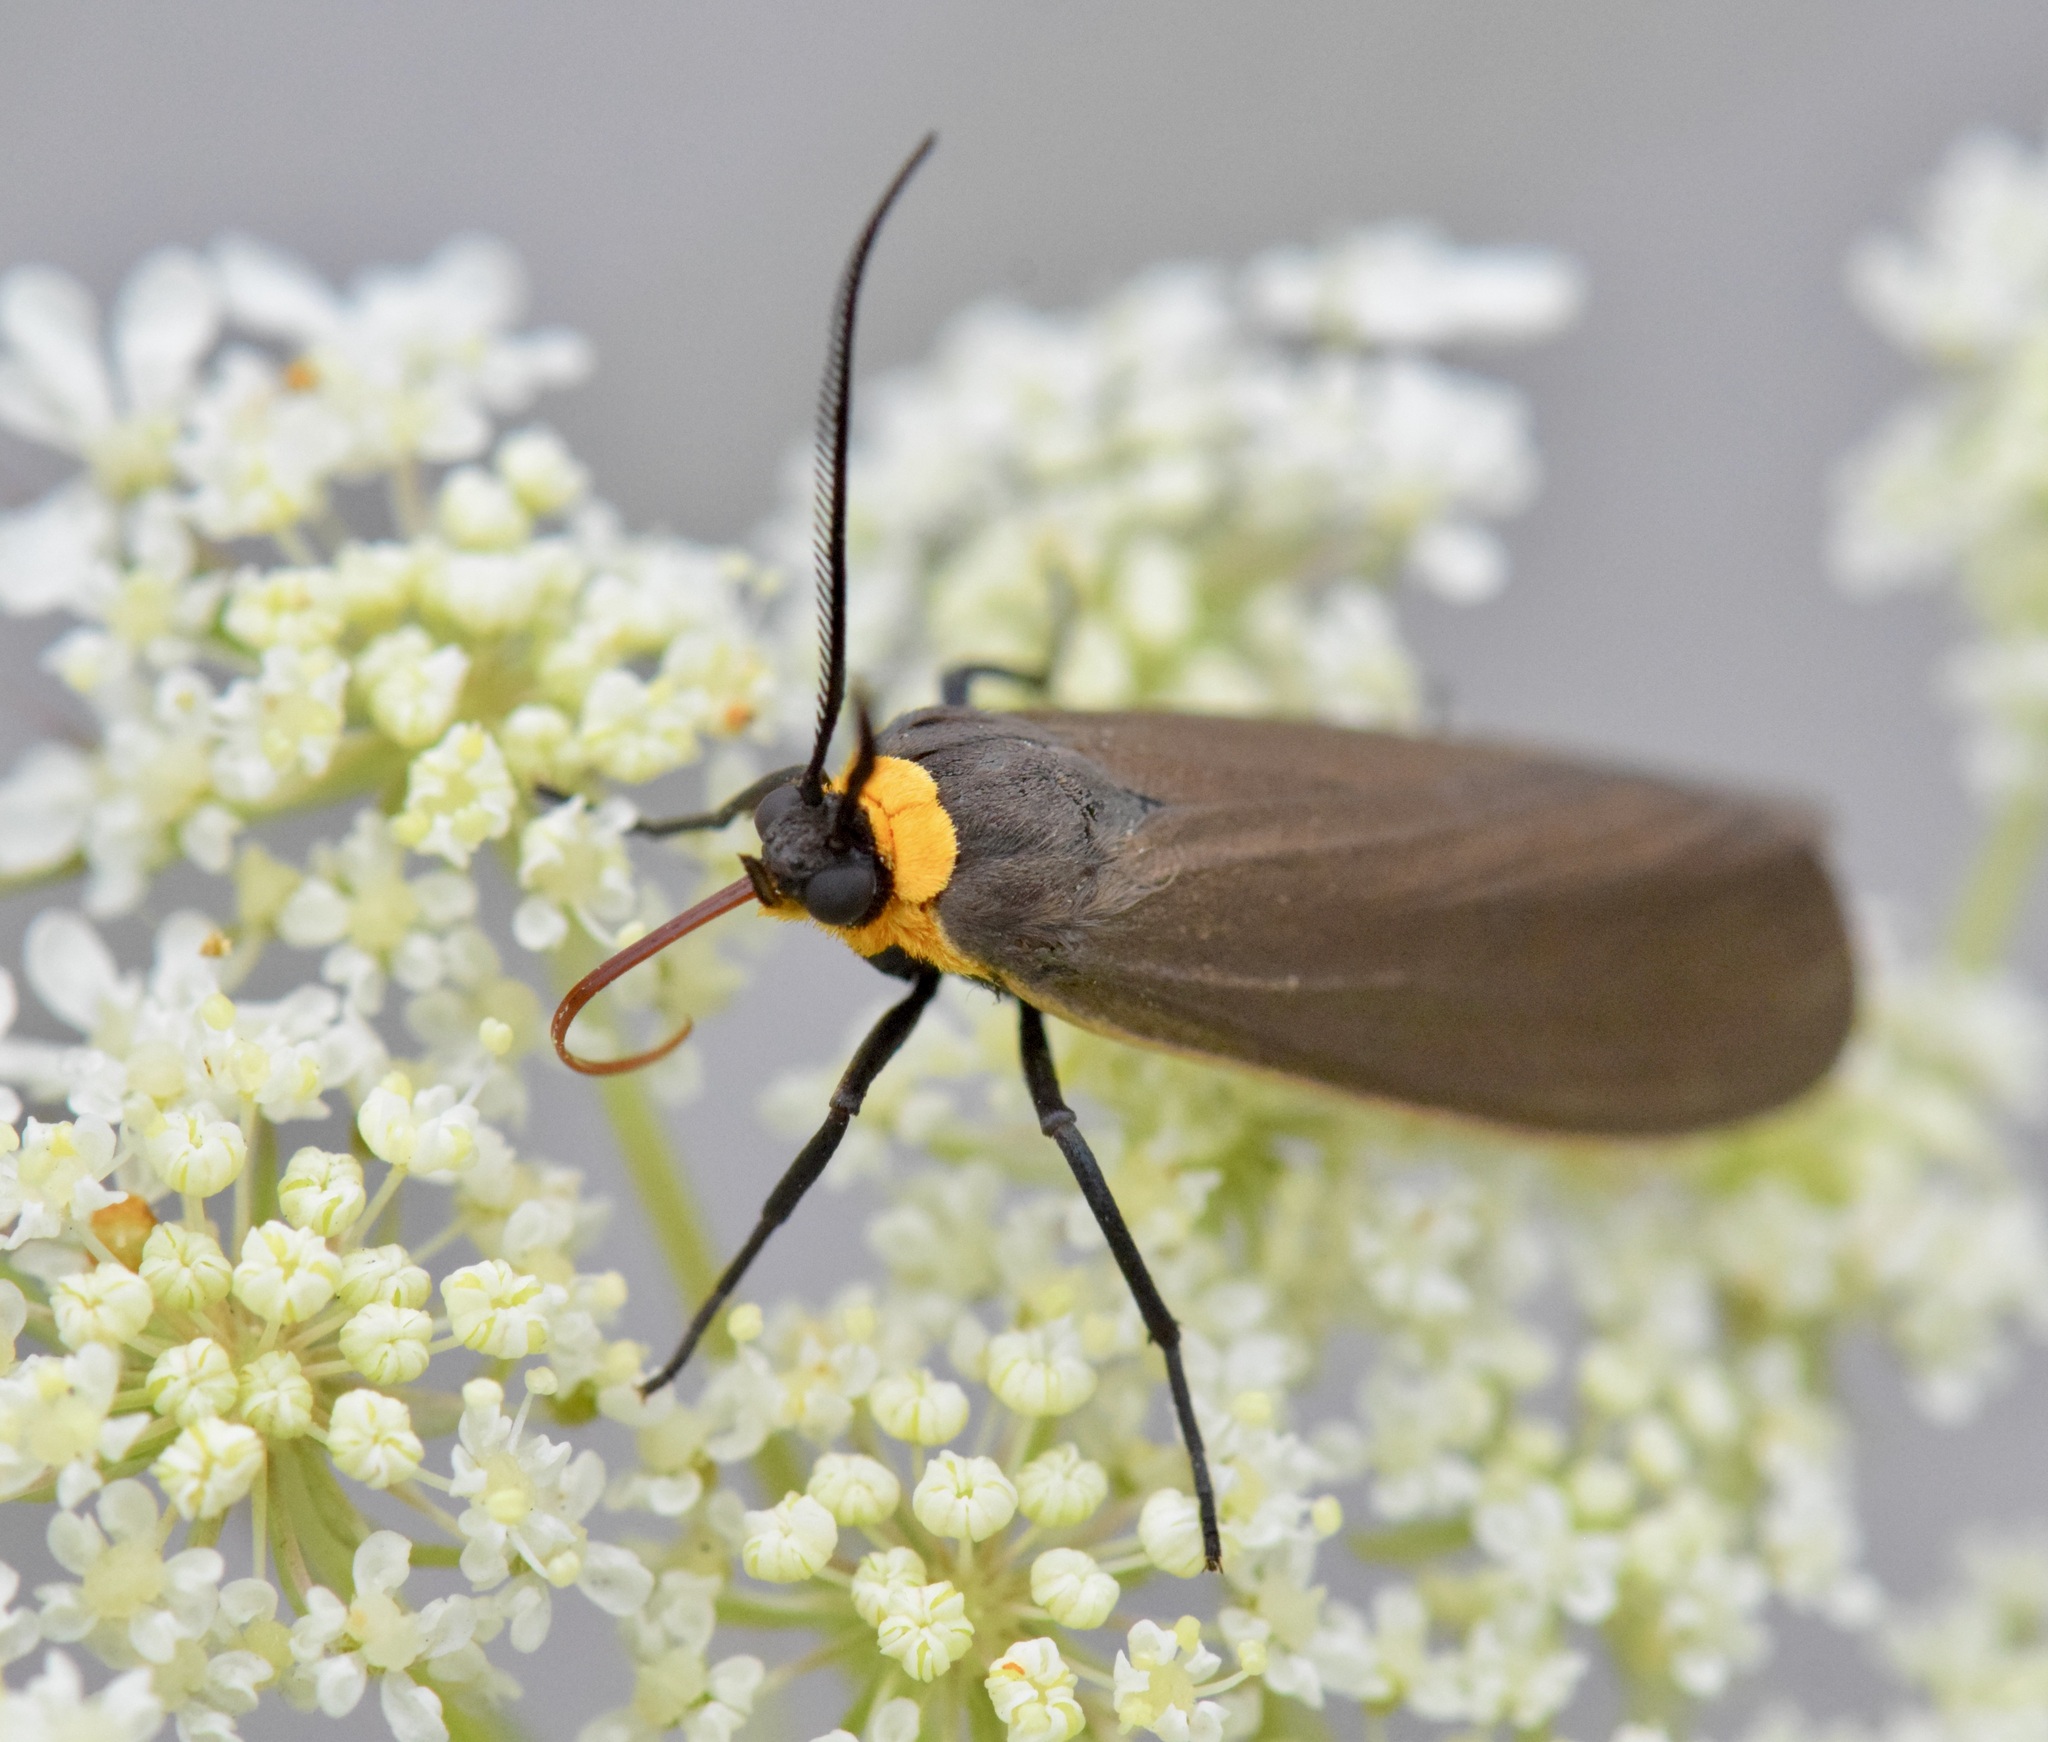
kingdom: Animalia
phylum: Arthropoda
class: Insecta
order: Lepidoptera
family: Erebidae
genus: Cisseps
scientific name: Cisseps fulvicollis
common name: Yellow-collared scape moth
